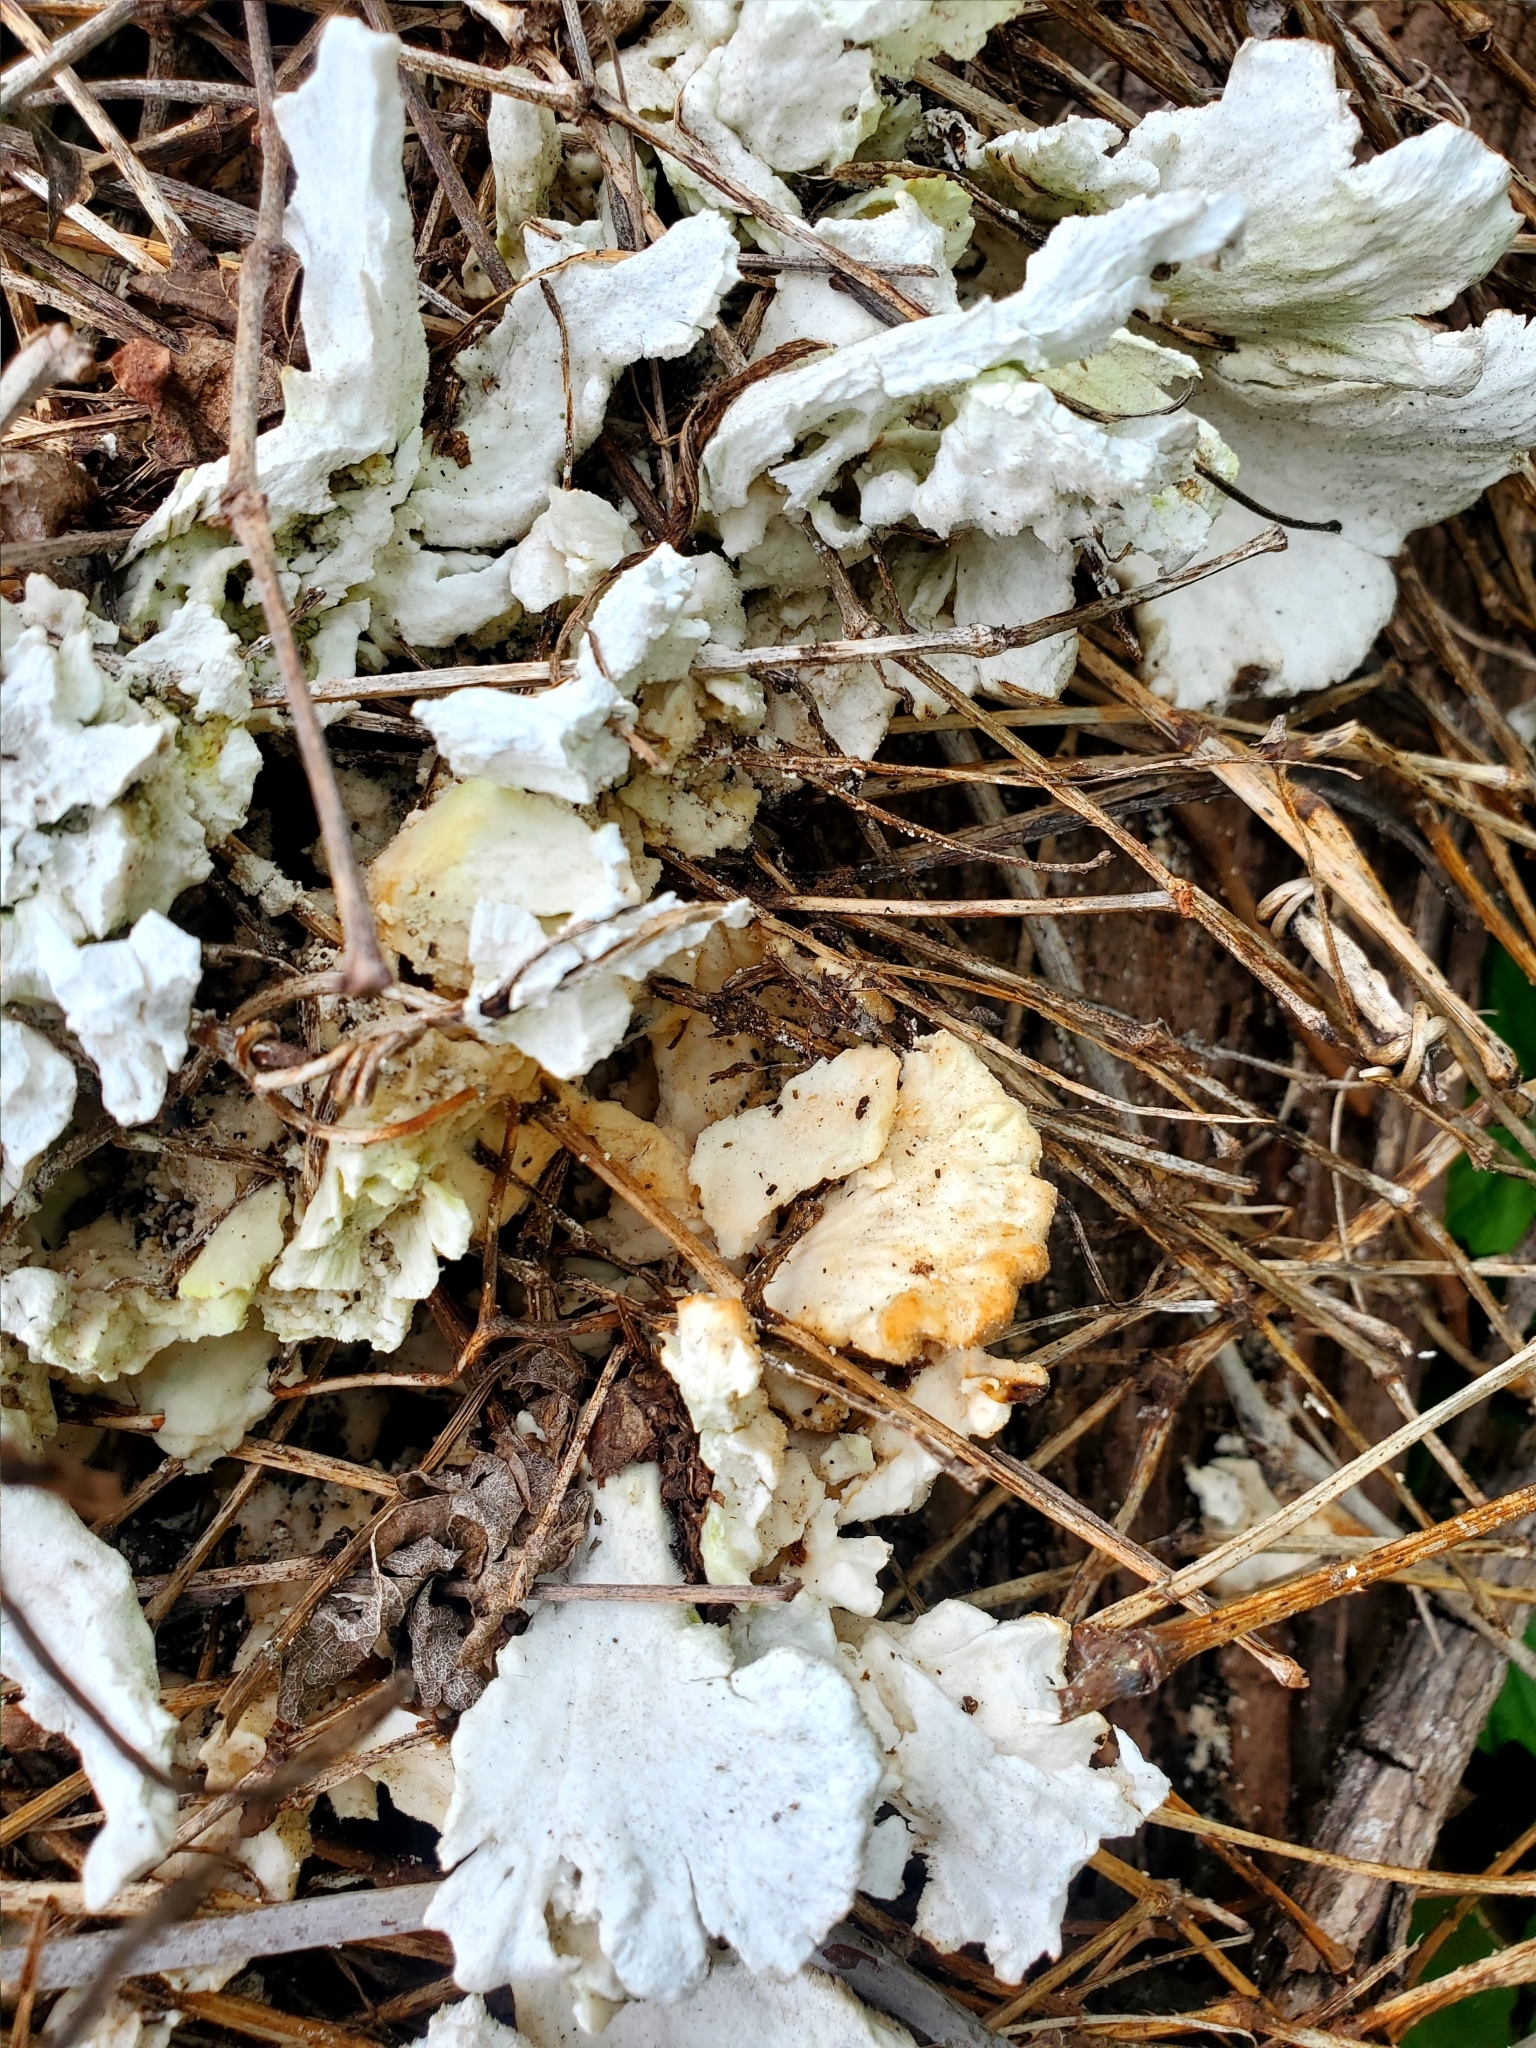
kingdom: Fungi
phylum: Basidiomycota
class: Agaricomycetes
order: Polyporales
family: Laetiporaceae
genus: Laetiporus
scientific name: Laetiporus sulphureus
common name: Chicken of the woods
